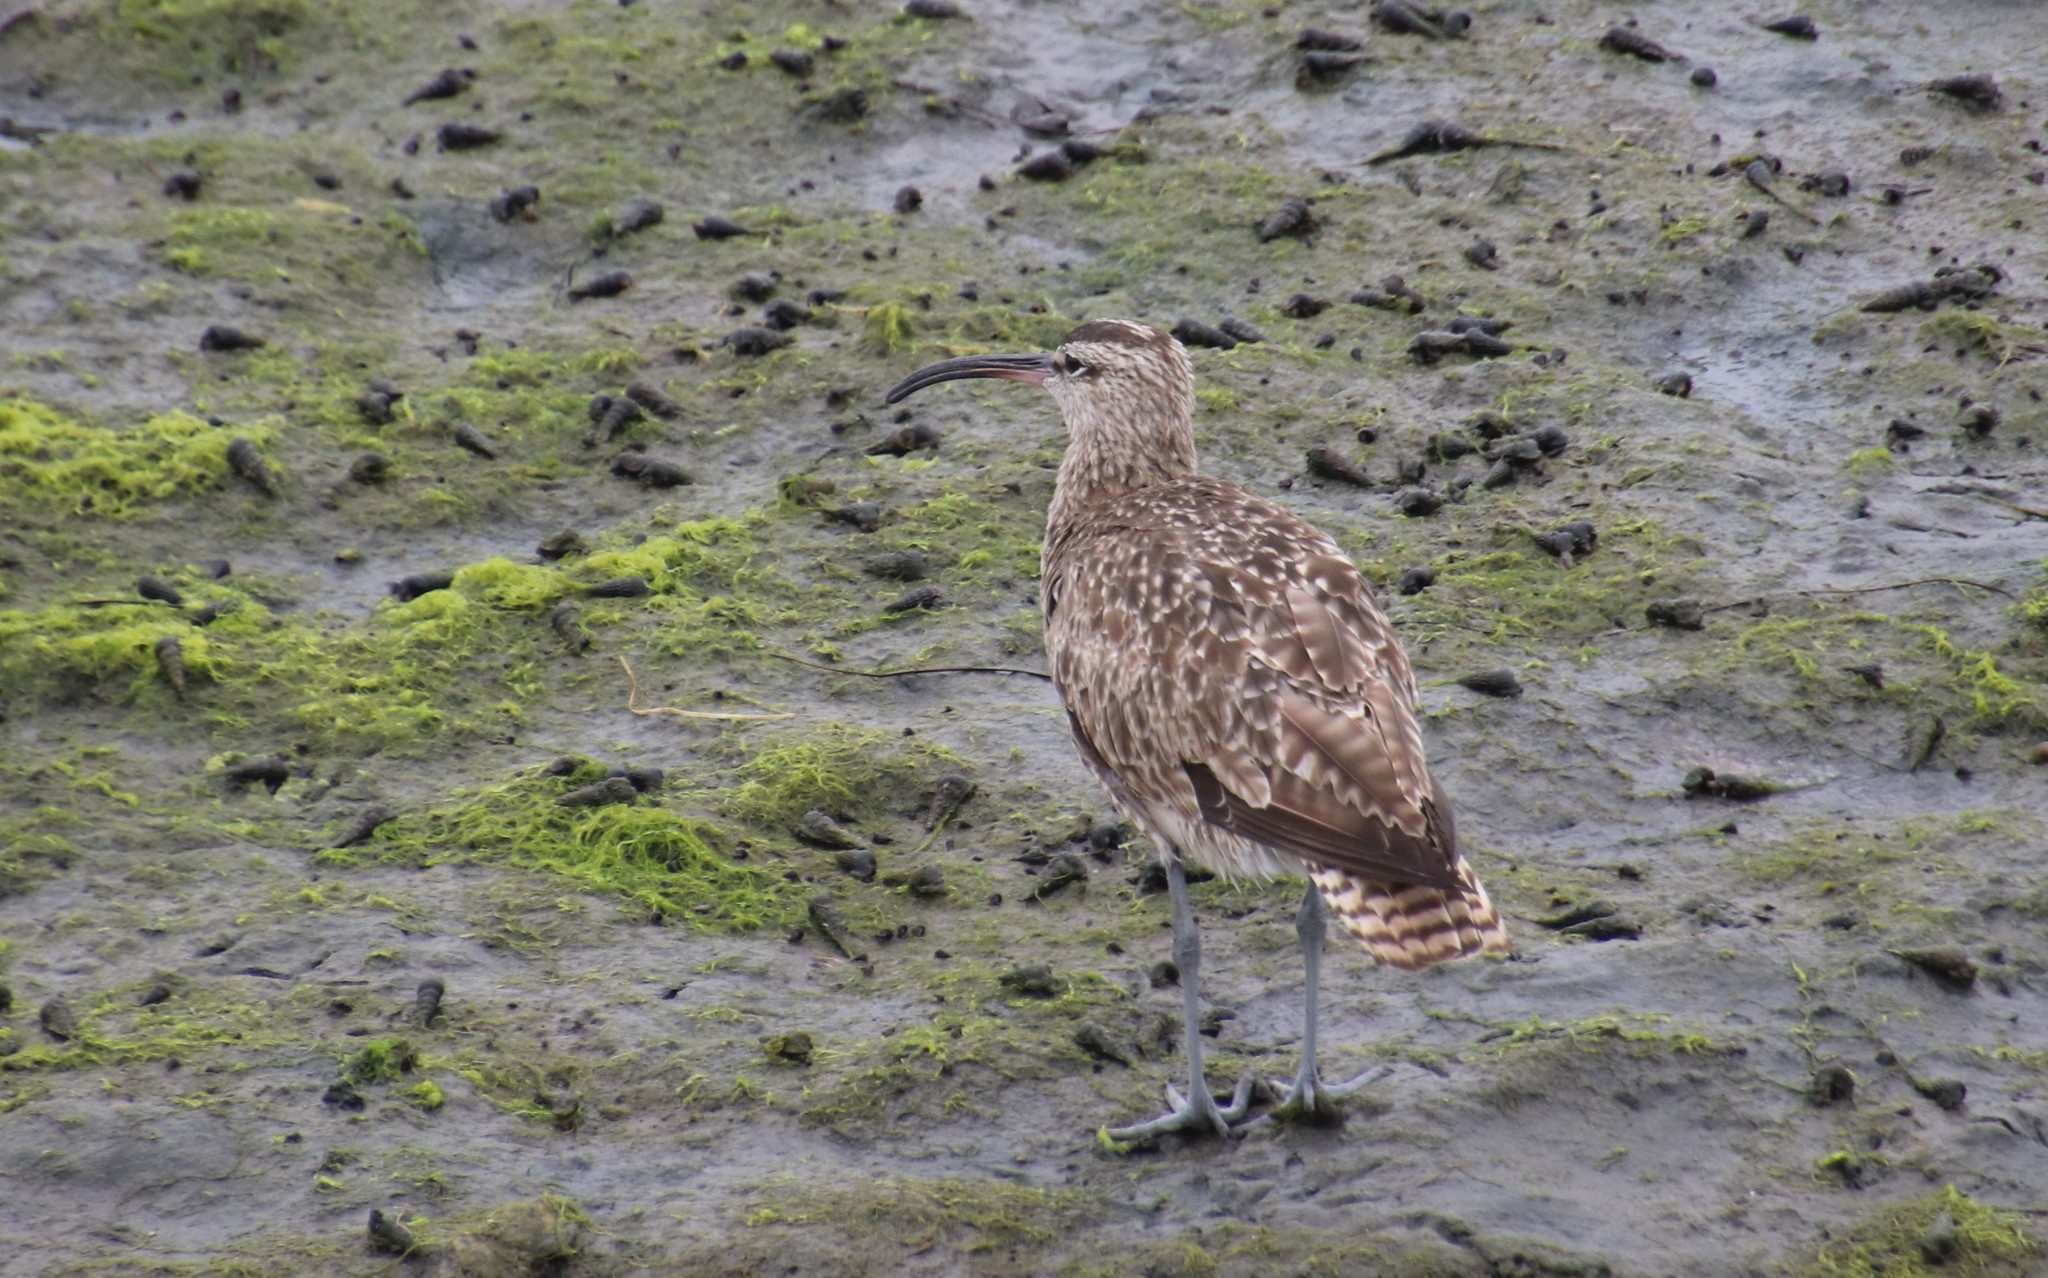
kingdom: Animalia
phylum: Chordata
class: Aves
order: Charadriiformes
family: Scolopacidae
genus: Numenius
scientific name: Numenius phaeopus
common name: Whimbrel
